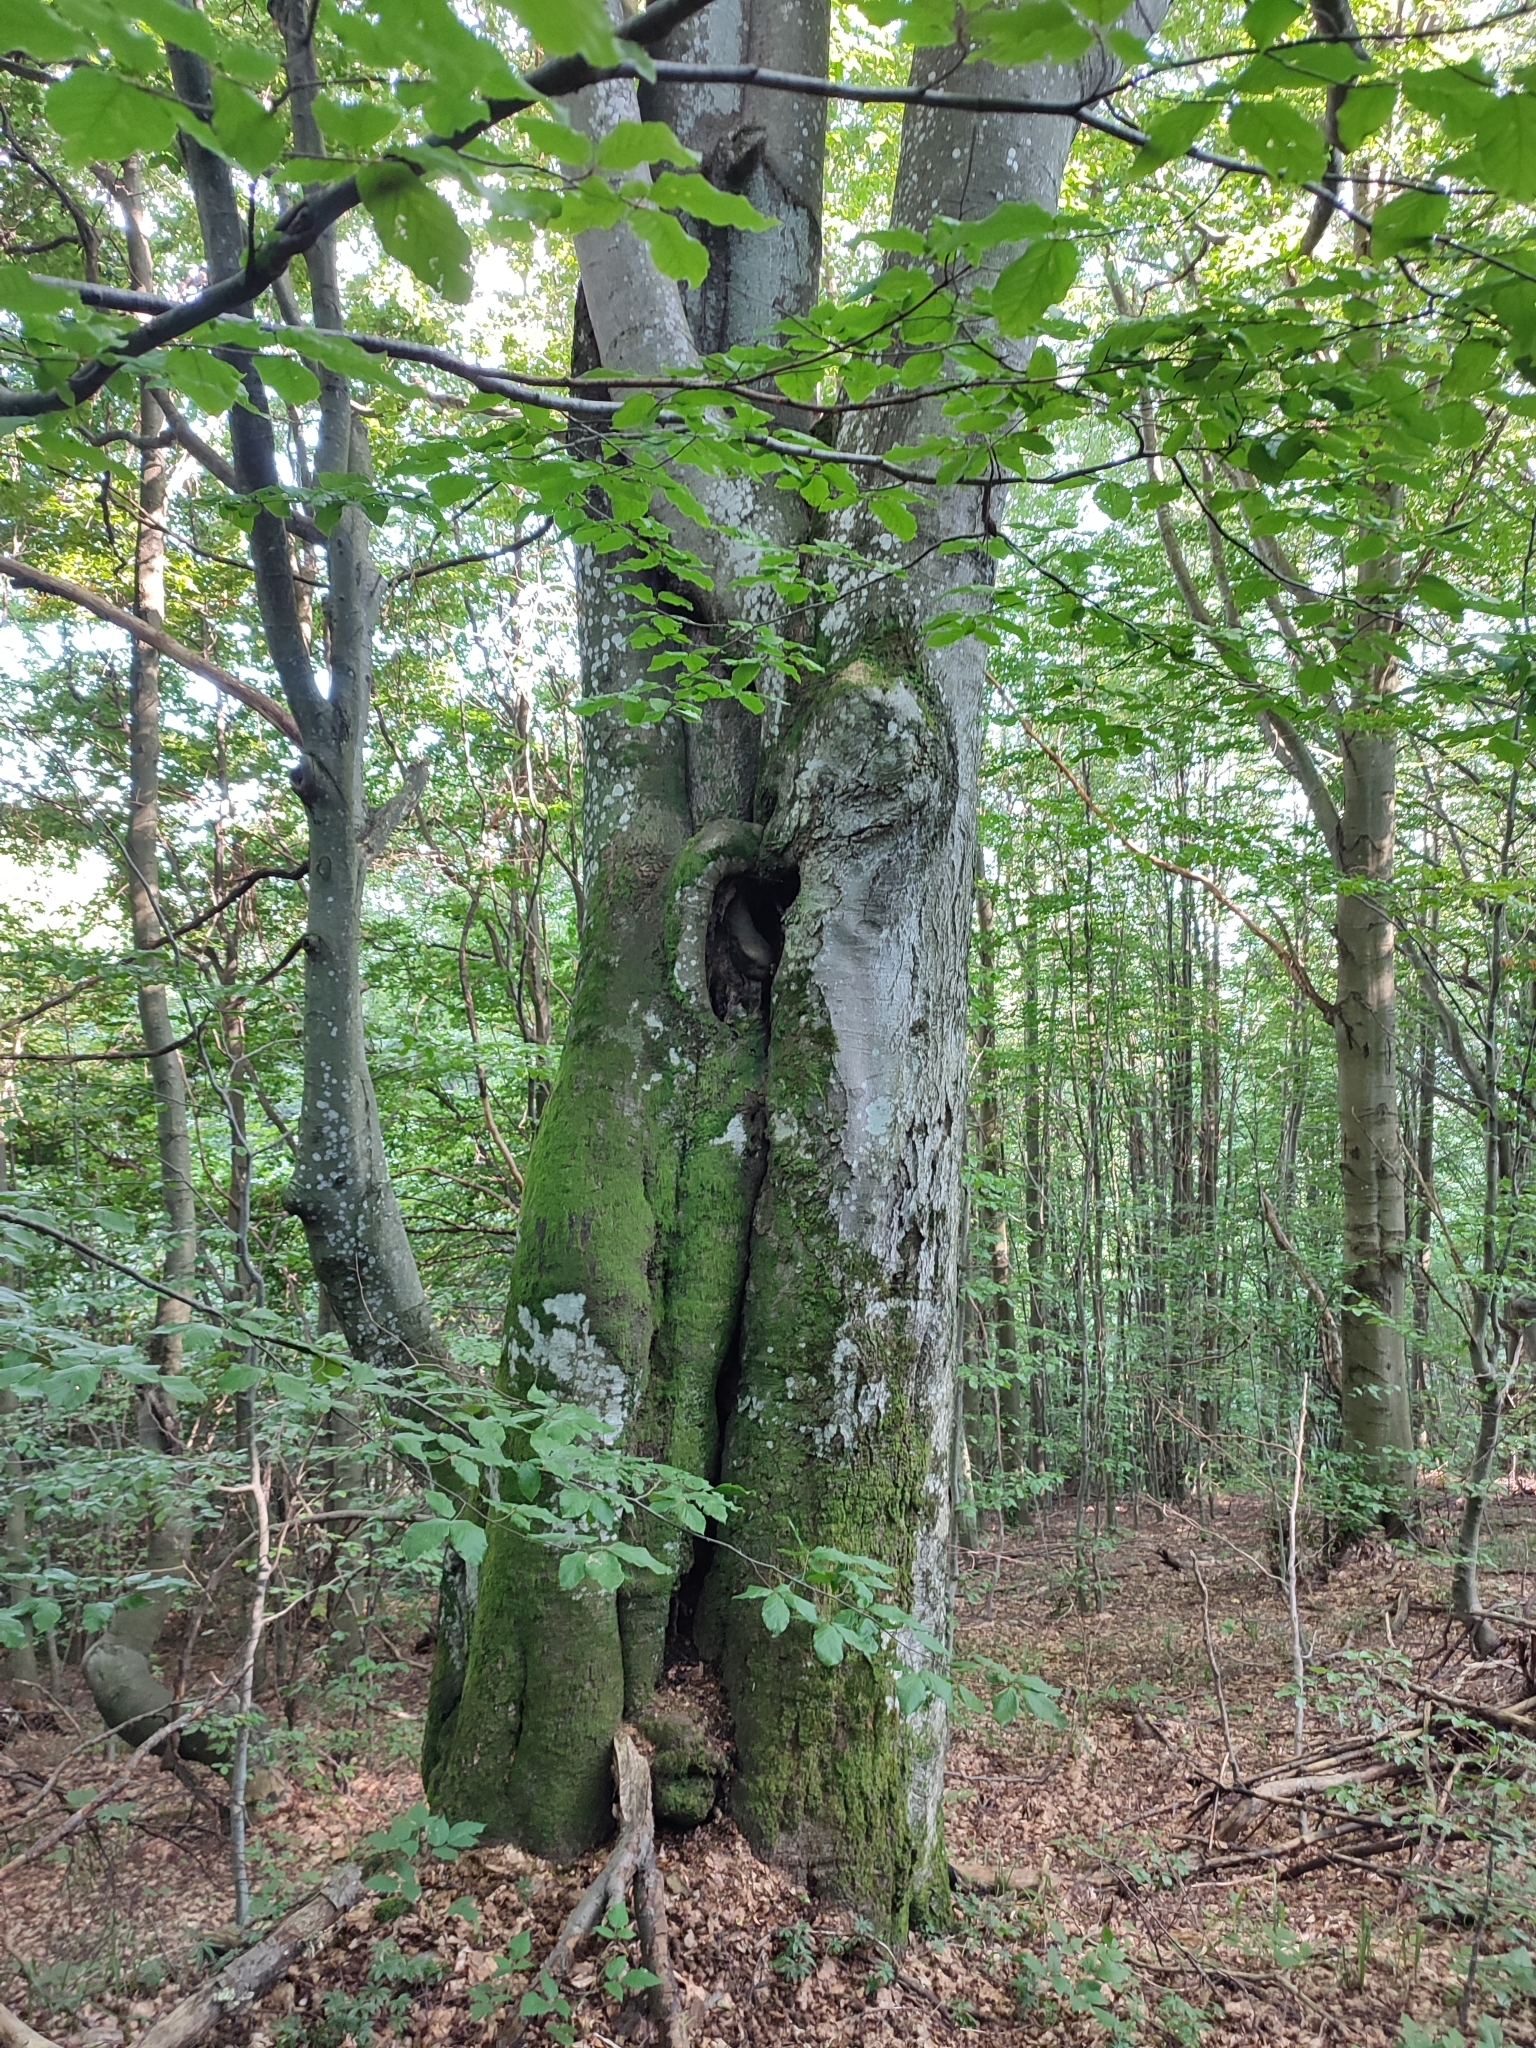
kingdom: Plantae
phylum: Tracheophyta
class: Magnoliopsida
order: Fagales
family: Fagaceae
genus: Fagus
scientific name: Fagus sylvatica
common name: Beech
